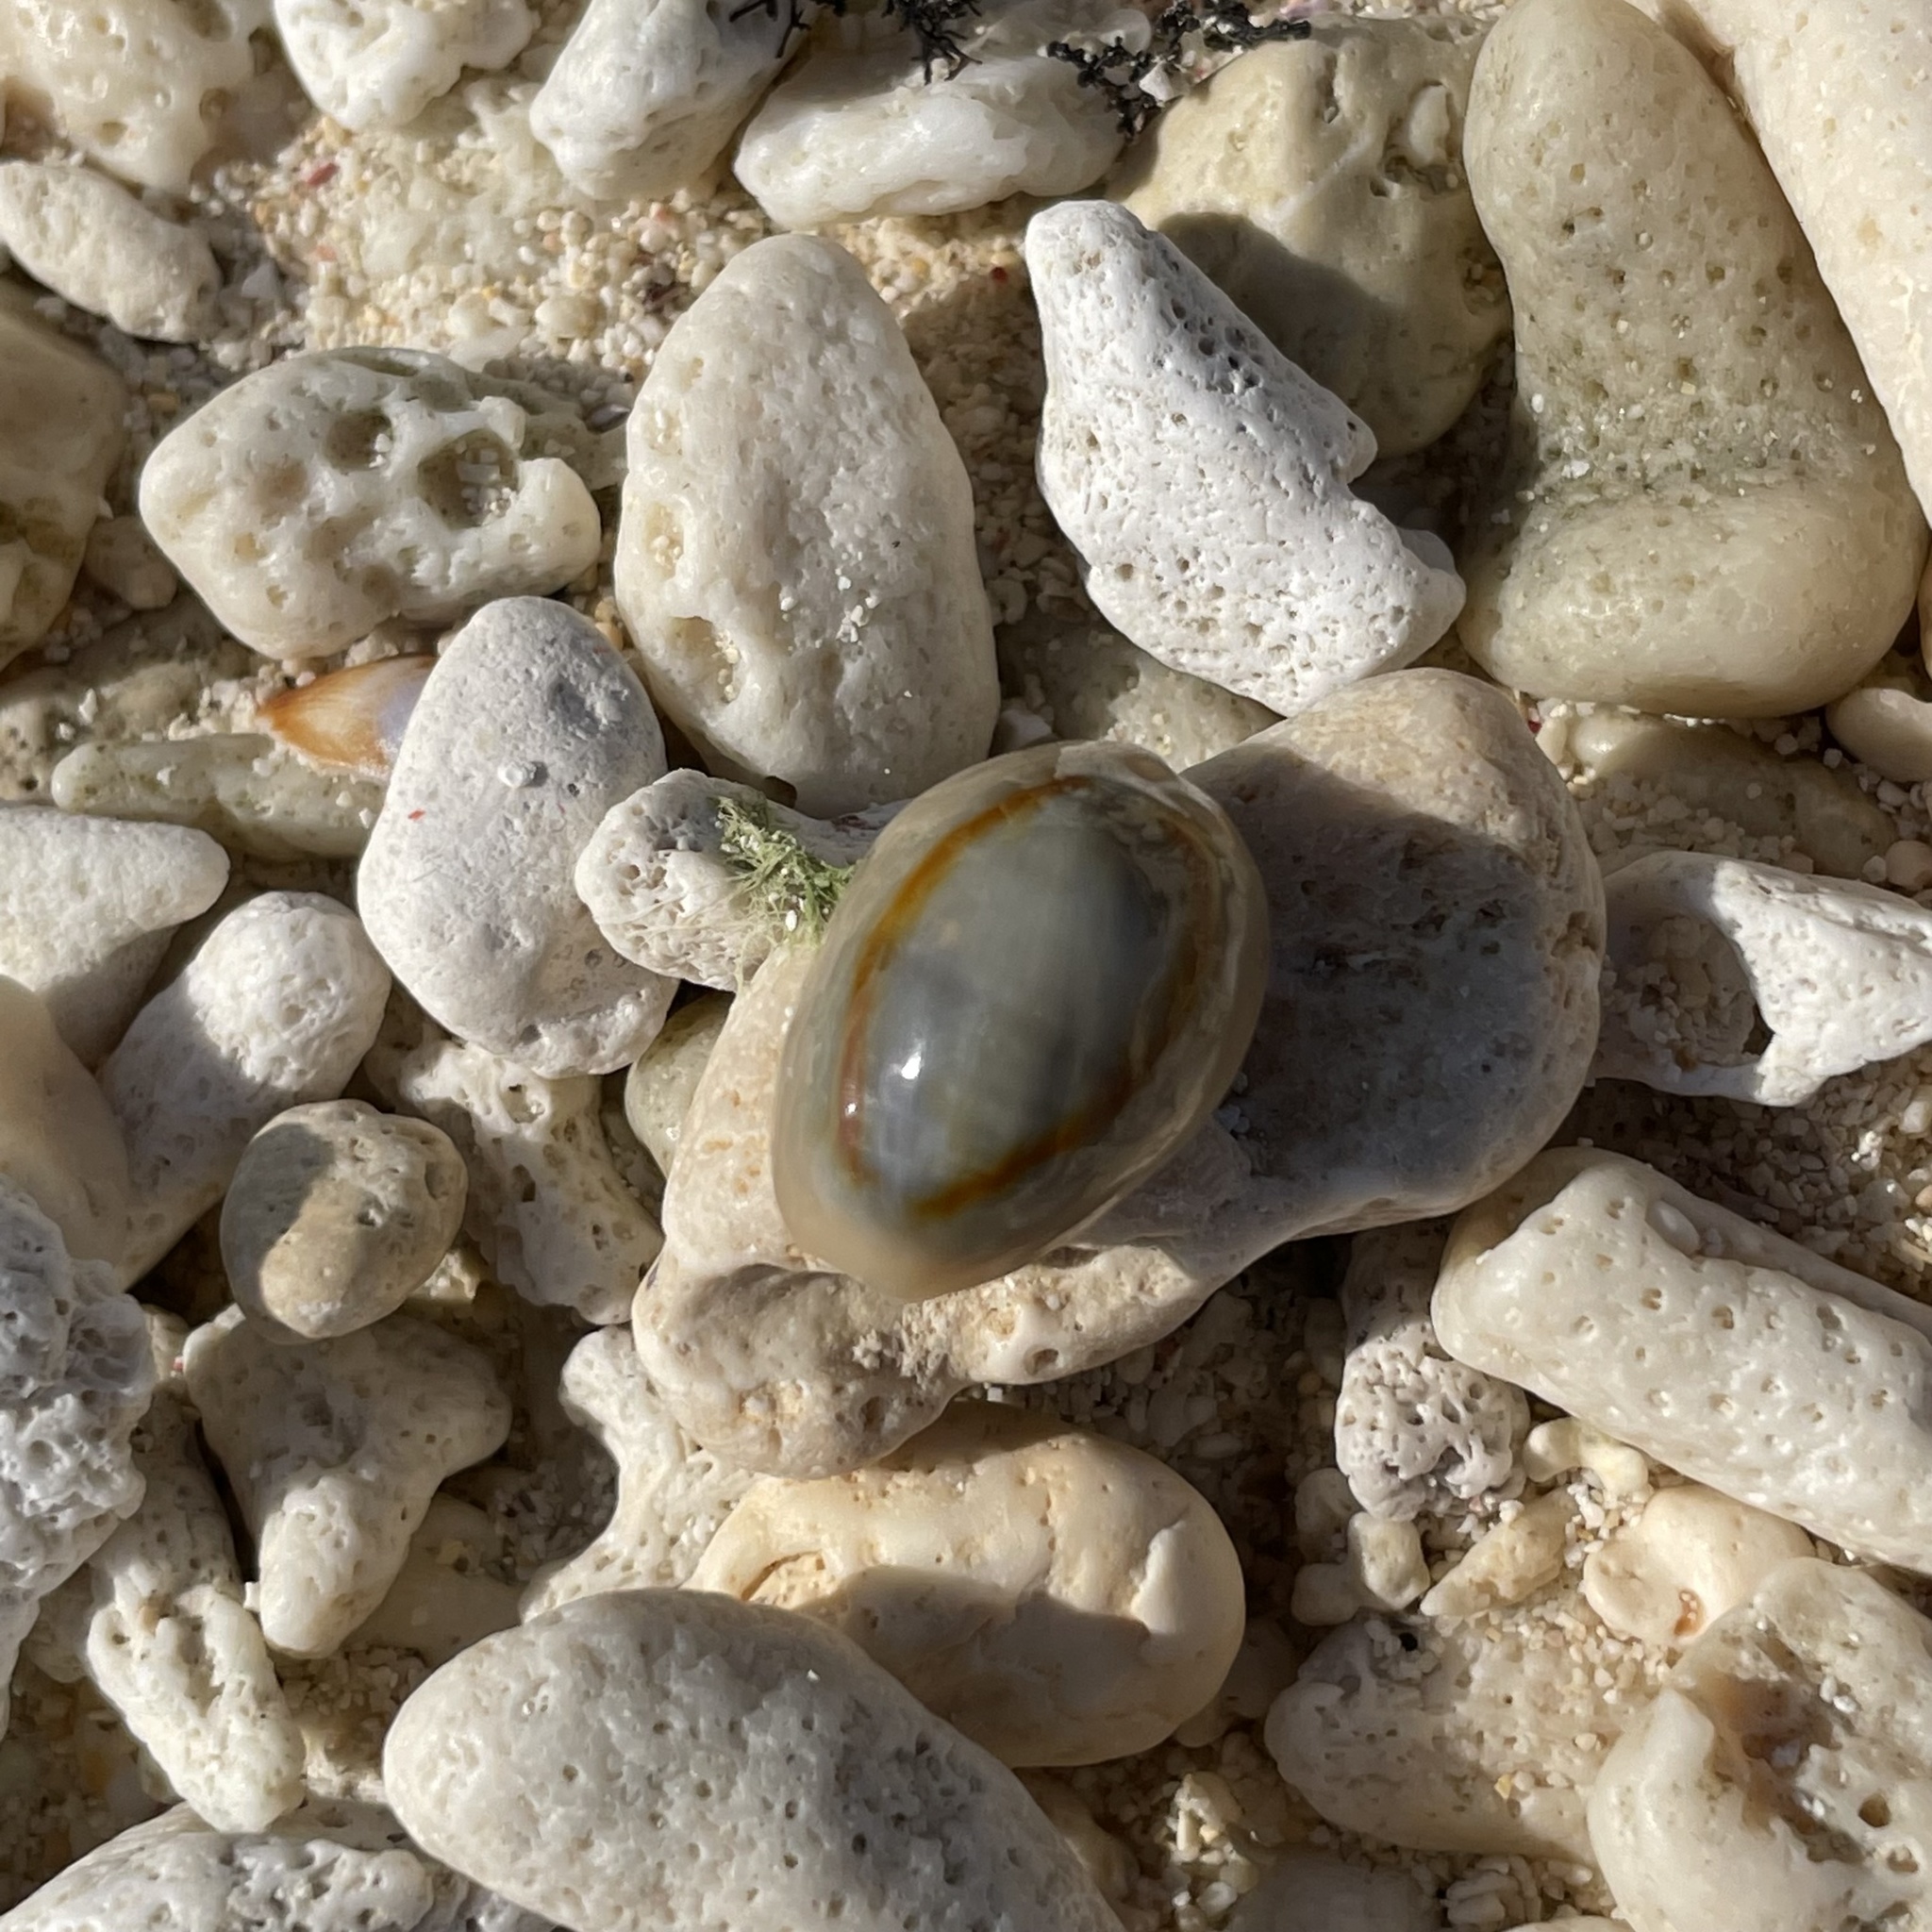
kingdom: Animalia
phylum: Mollusca
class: Gastropoda
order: Littorinimorpha
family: Cypraeidae
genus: Monetaria
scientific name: Monetaria annulus
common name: Ring cowrie
